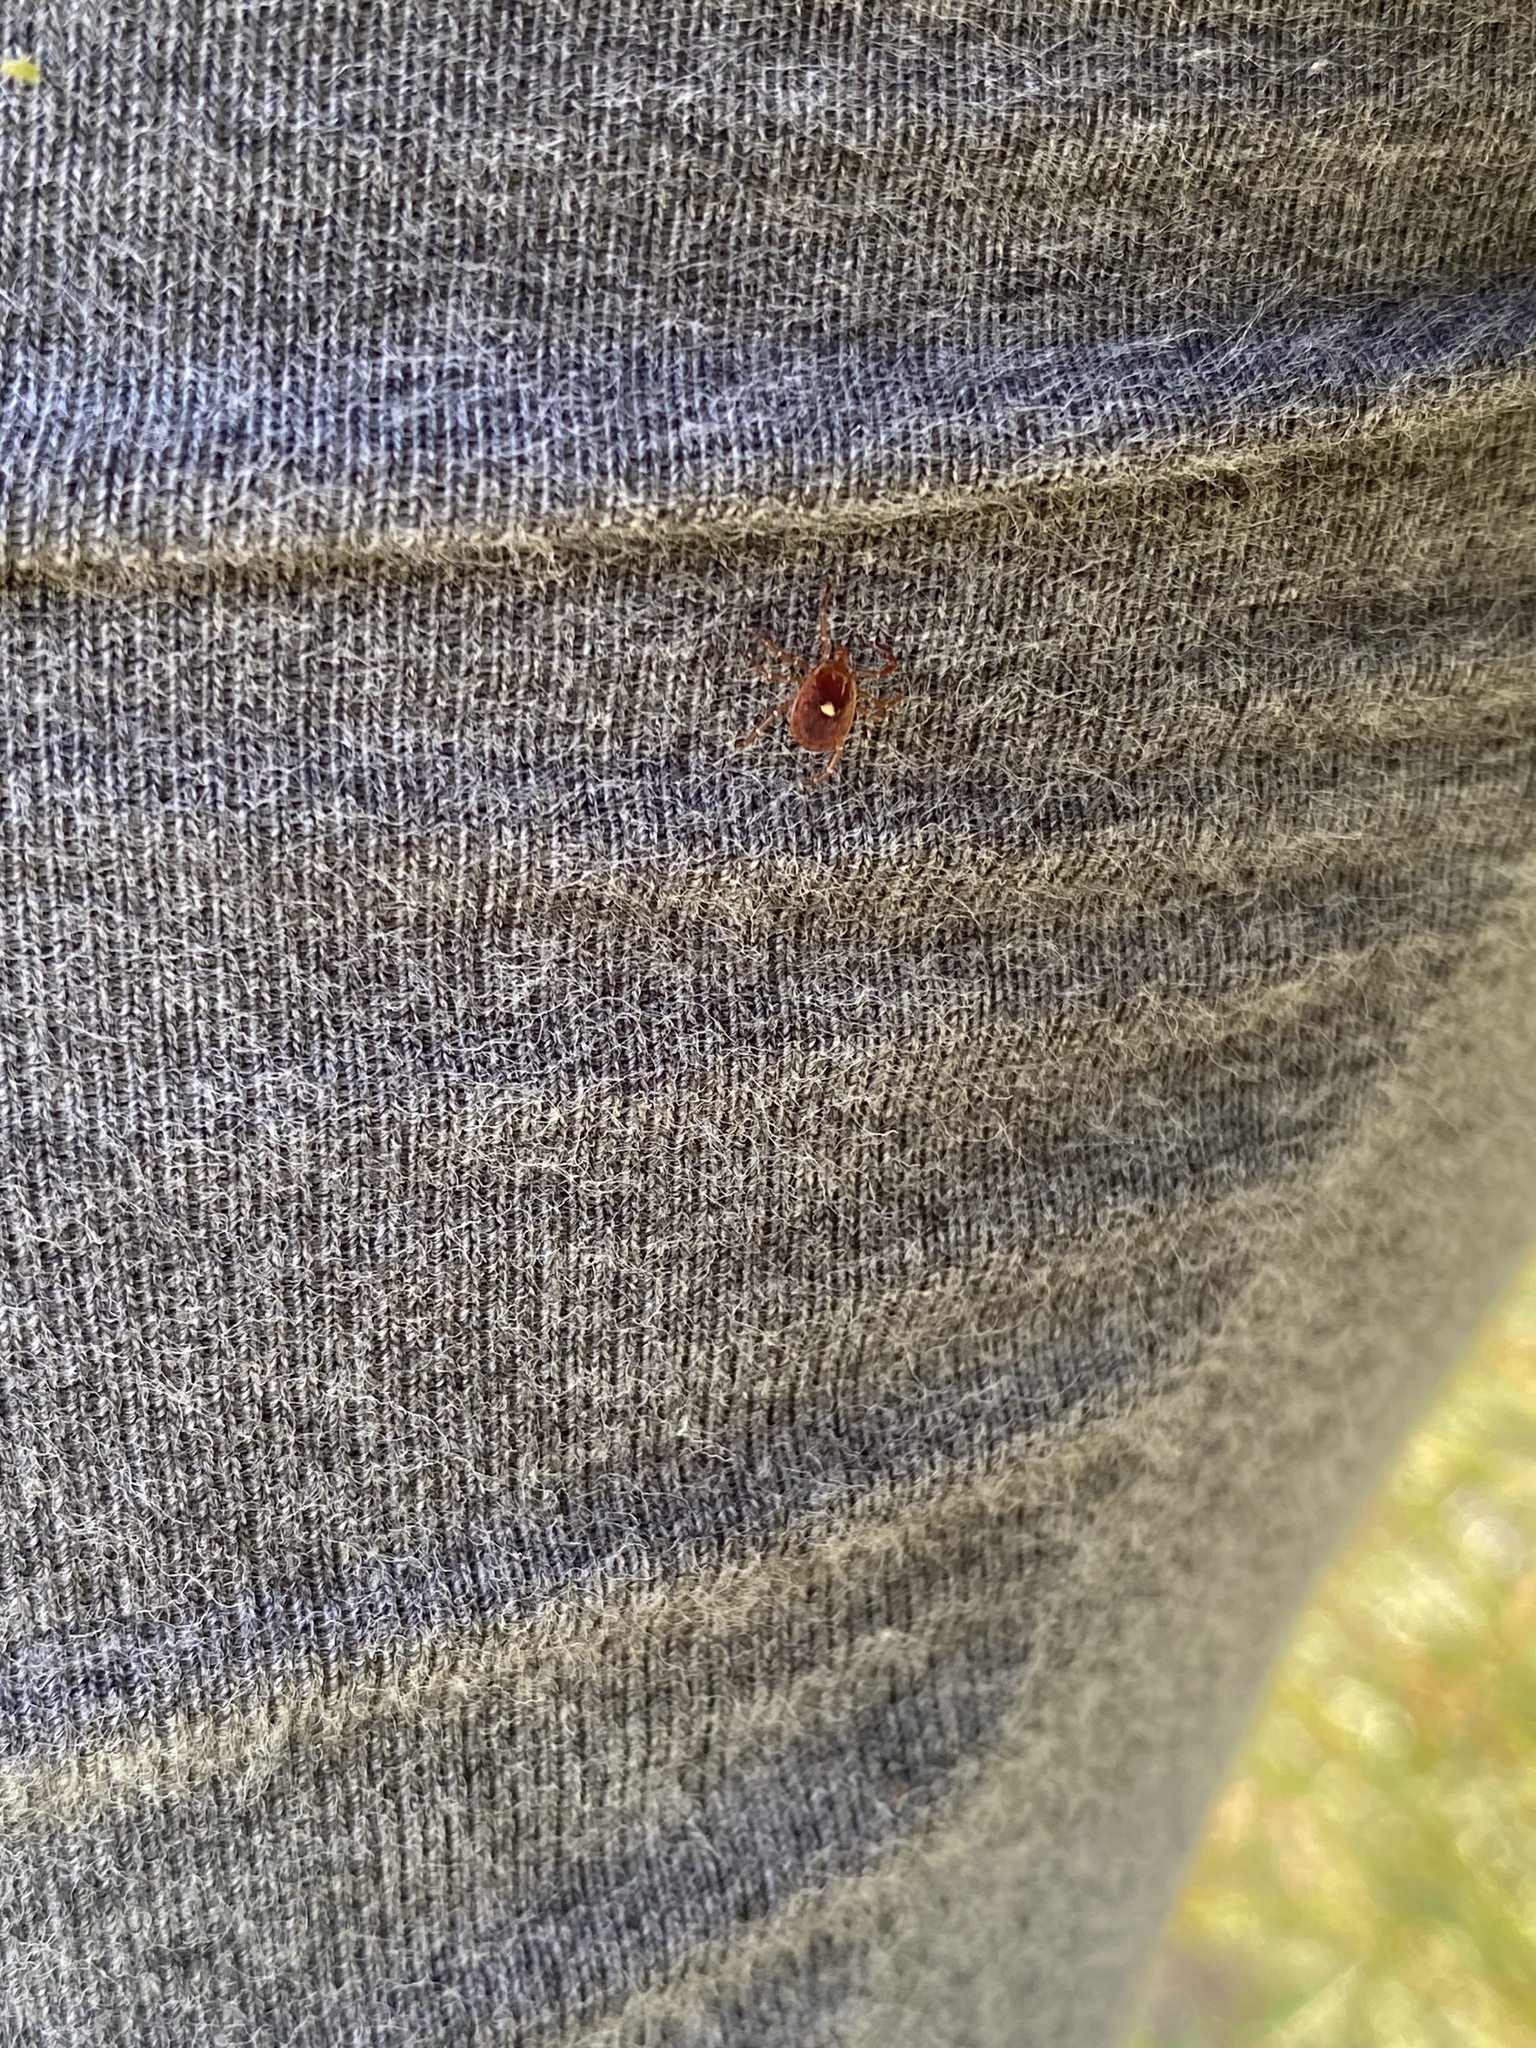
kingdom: Animalia
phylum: Arthropoda
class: Arachnida
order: Ixodida
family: Ixodidae
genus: Amblyomma
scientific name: Amblyomma americanum
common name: Lone star tick
